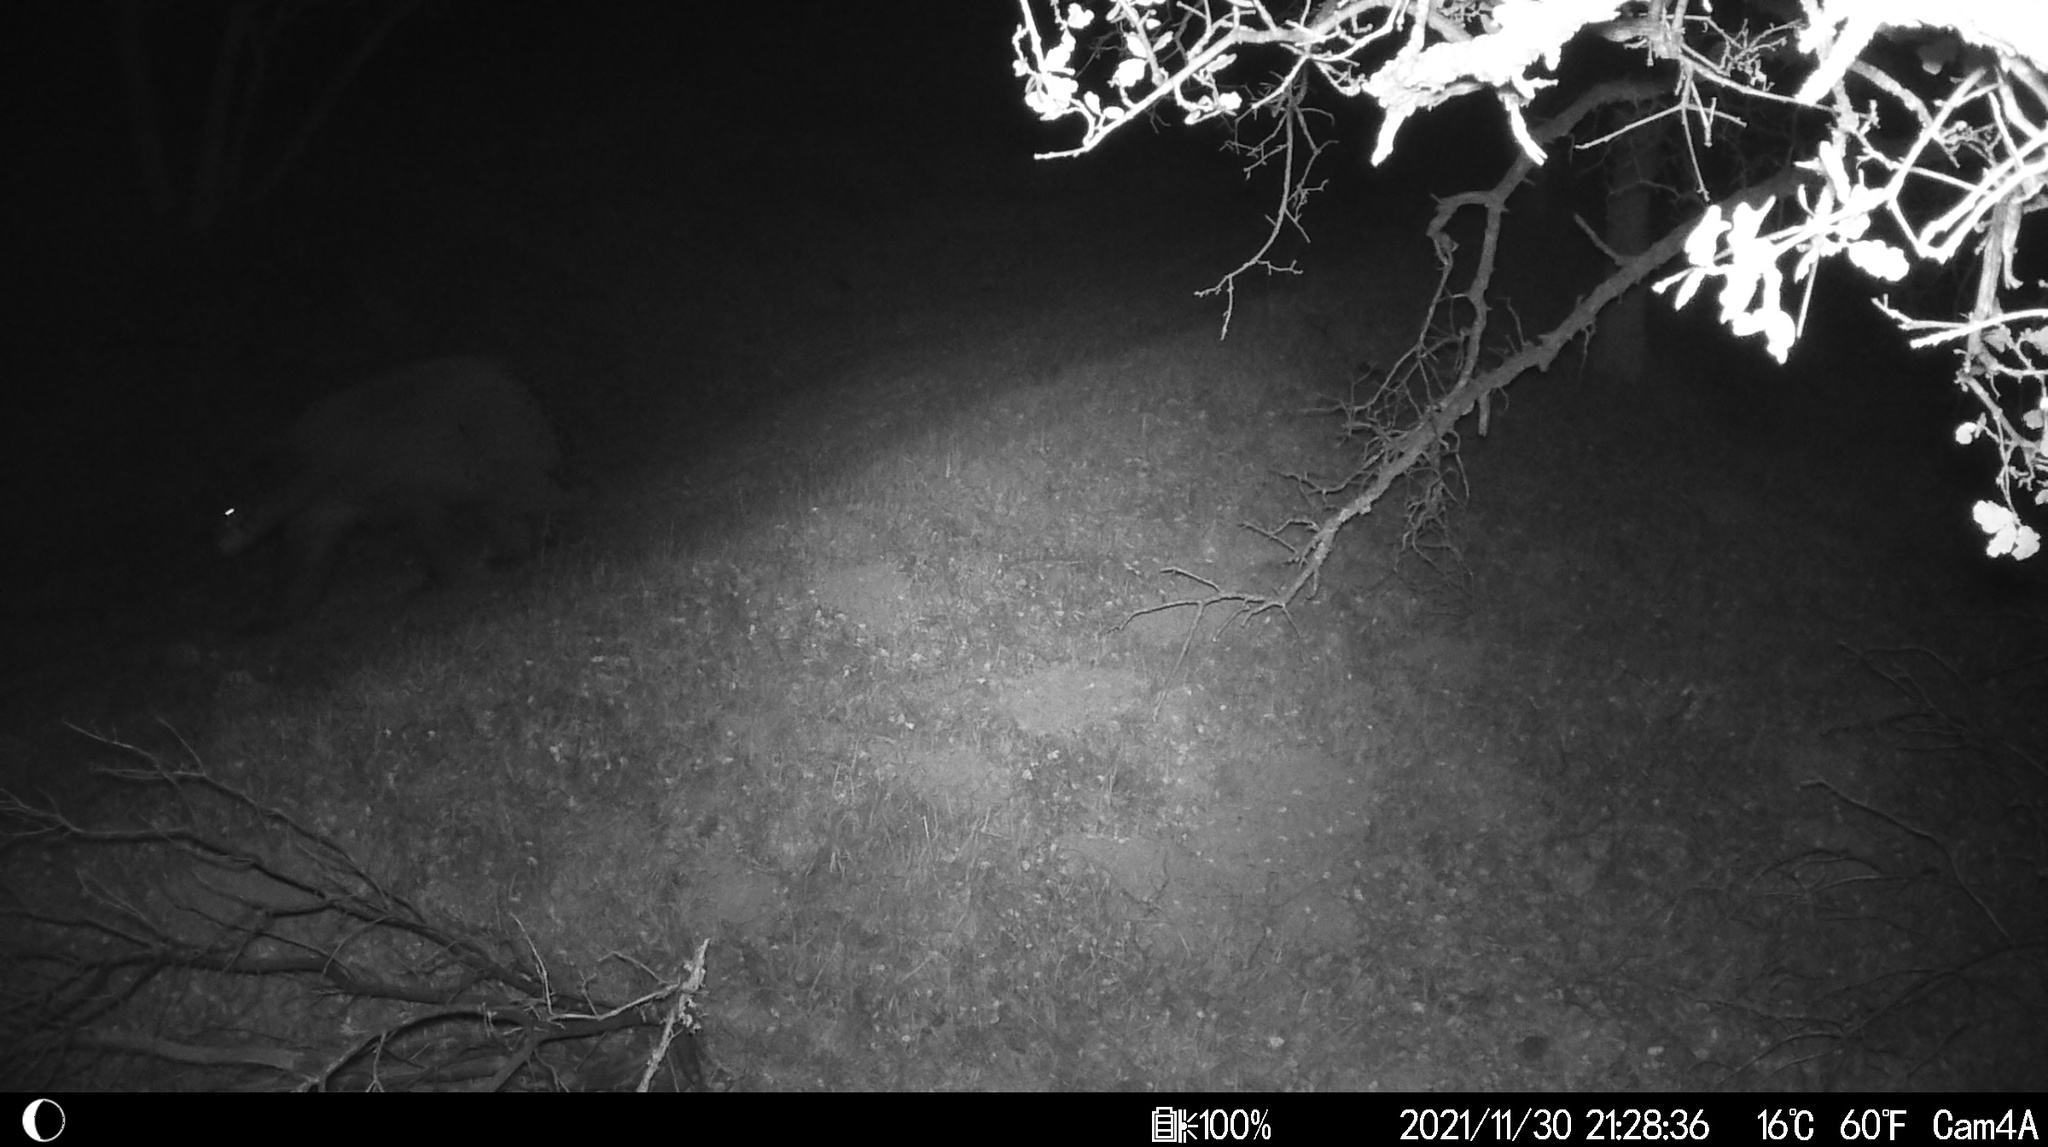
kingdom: Animalia
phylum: Chordata
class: Mammalia
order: Carnivora
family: Ursidae
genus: Ursus
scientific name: Ursus americanus
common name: American black bear
